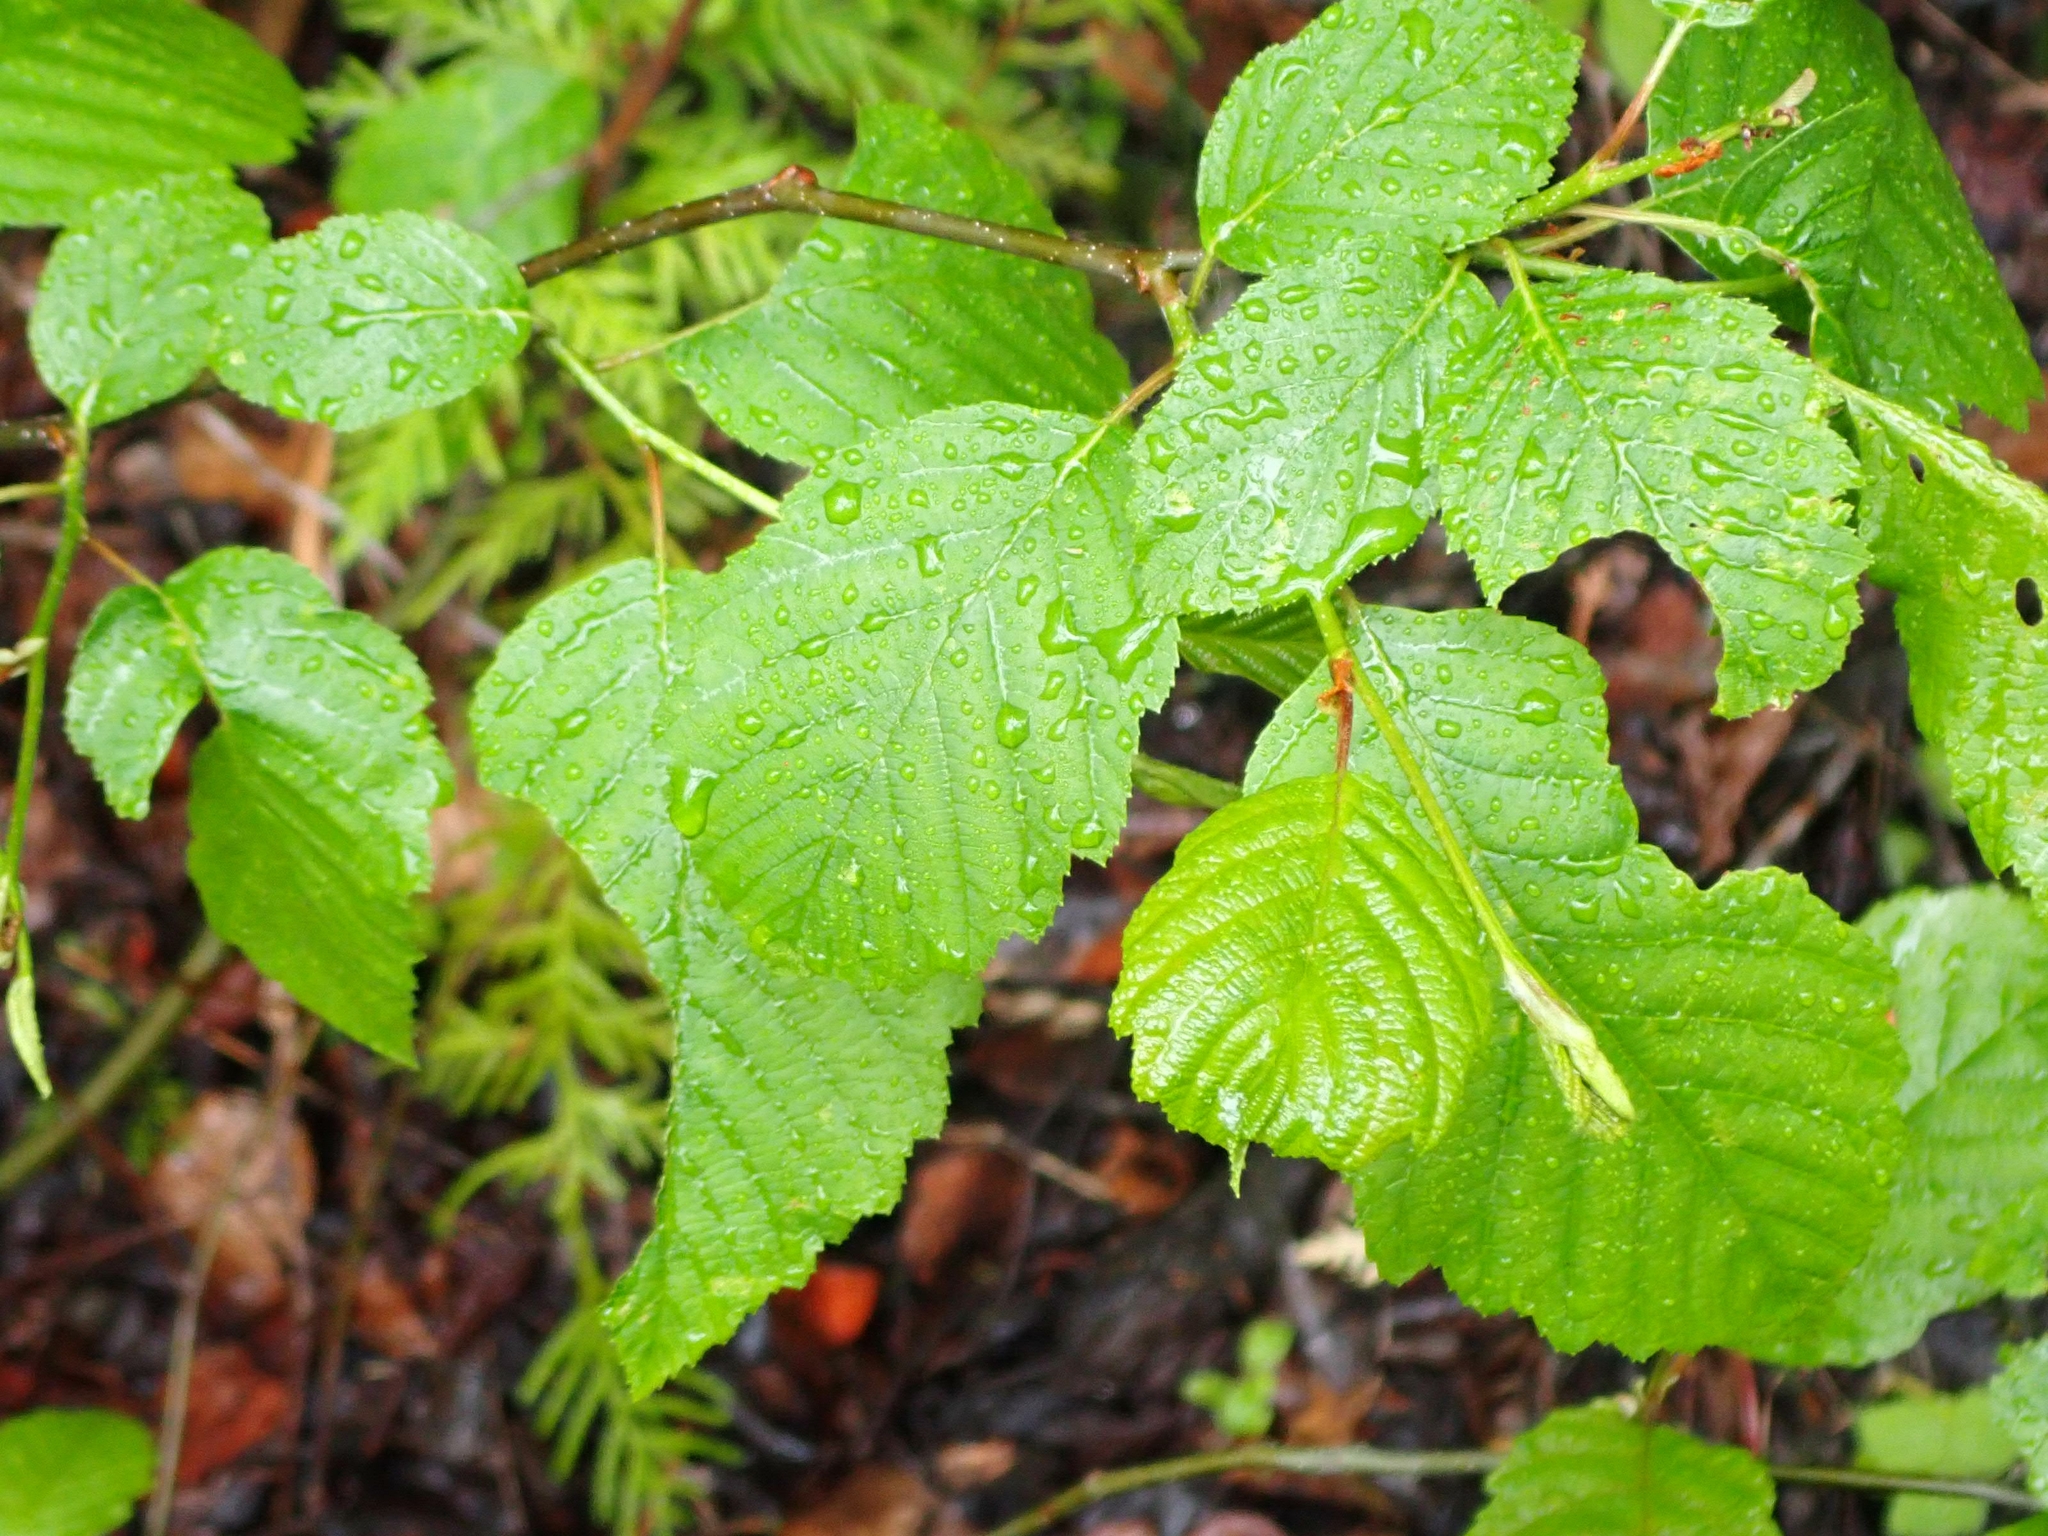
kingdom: Plantae
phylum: Tracheophyta
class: Magnoliopsida
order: Fagales
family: Betulaceae
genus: Alnus
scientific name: Alnus alnobetula
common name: Green alder
